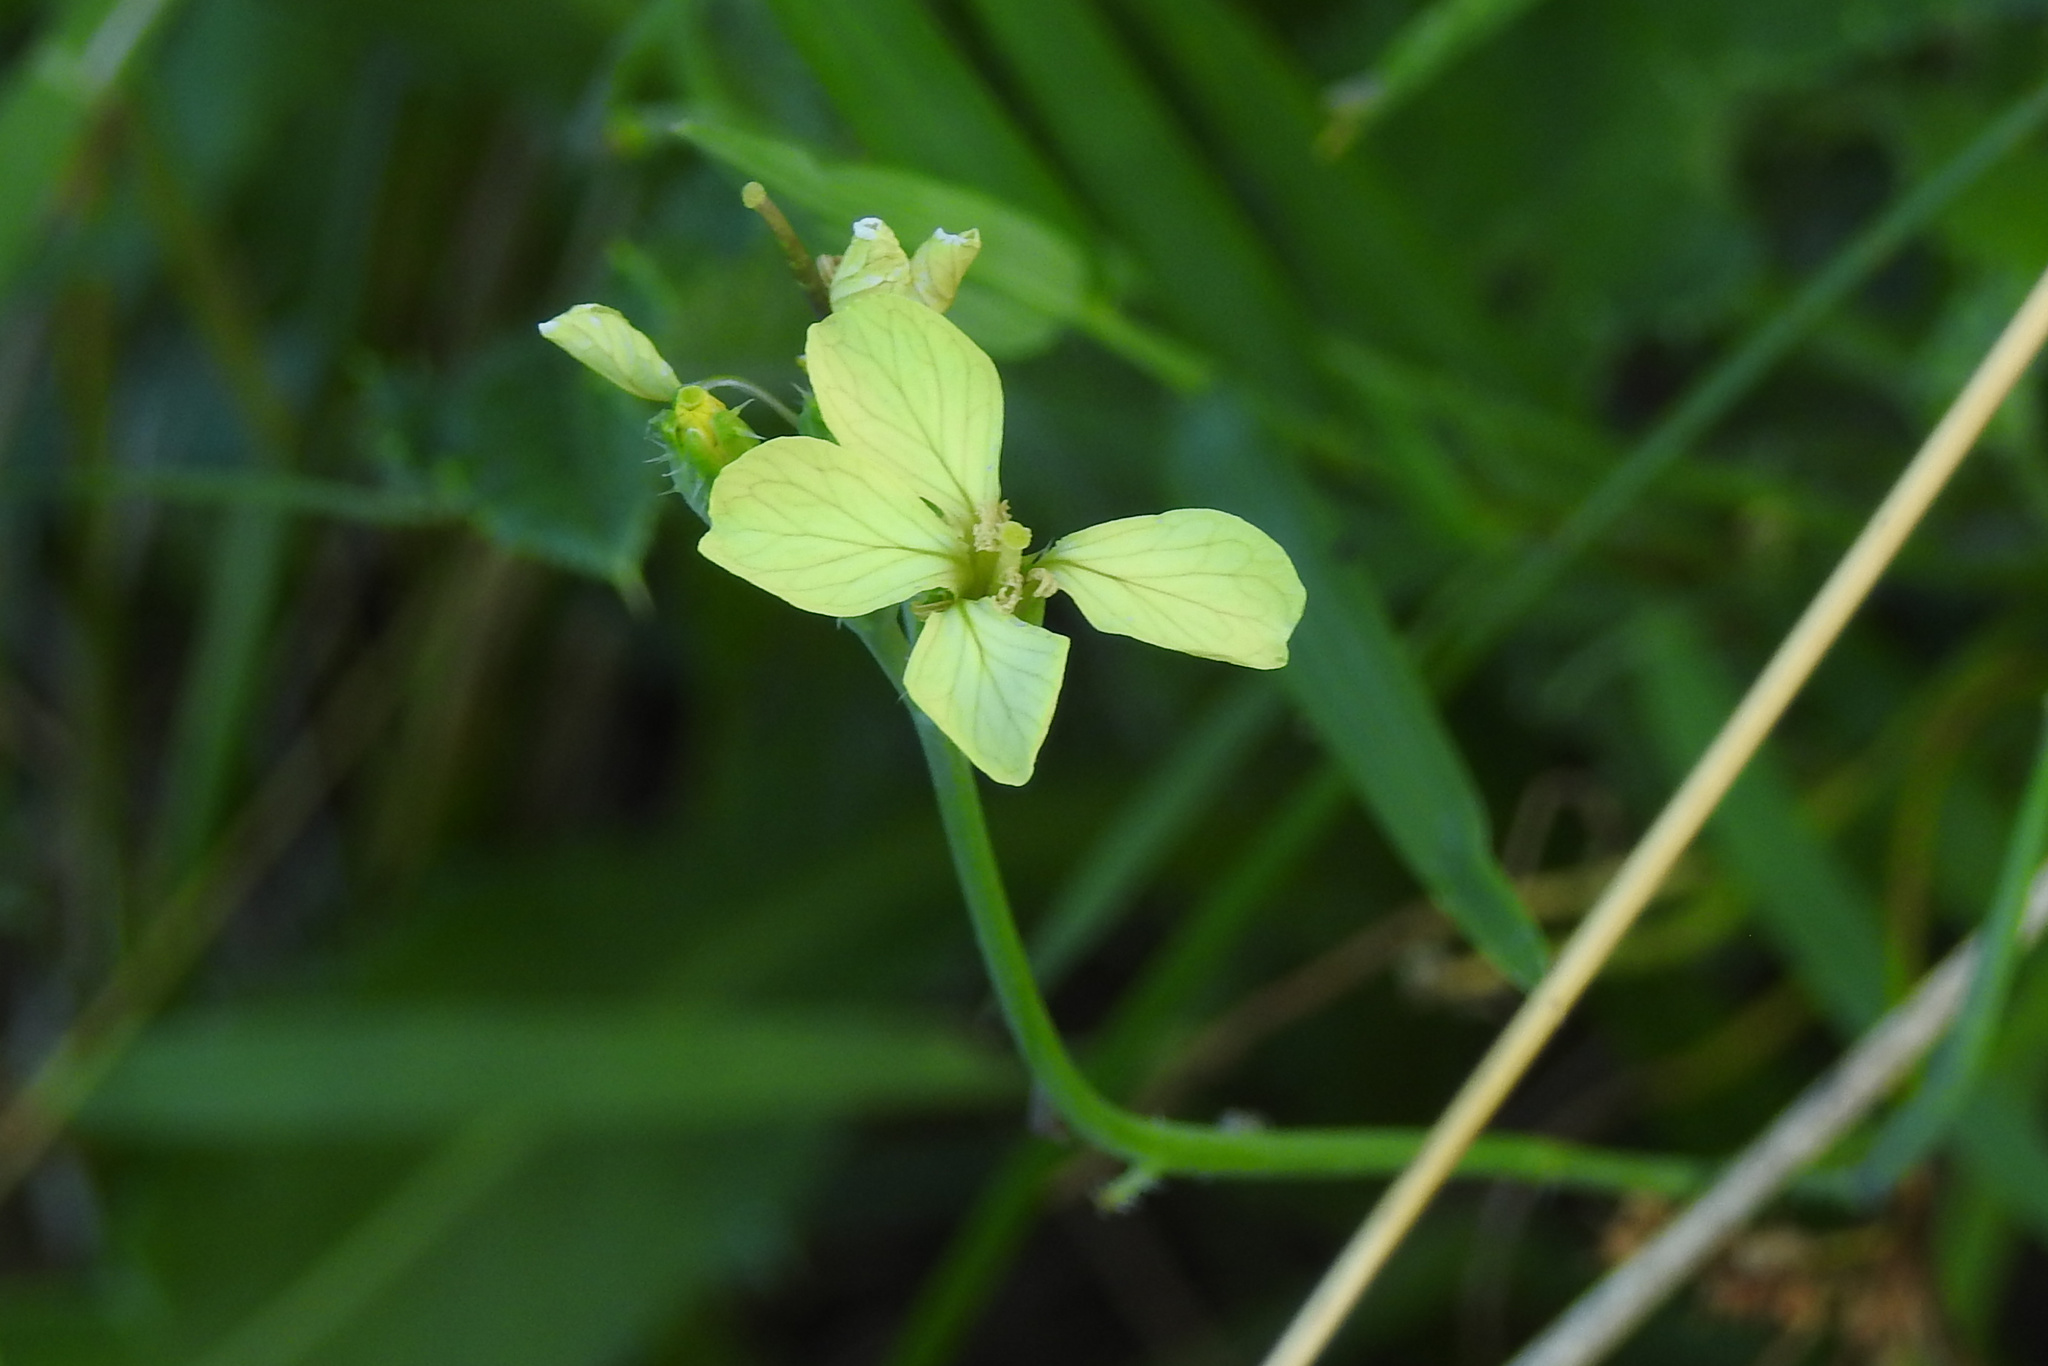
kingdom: Plantae
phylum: Tracheophyta
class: Magnoliopsida
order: Brassicales
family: Brassicaceae
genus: Raphanus
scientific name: Raphanus raphanistrum
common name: Wild radish
